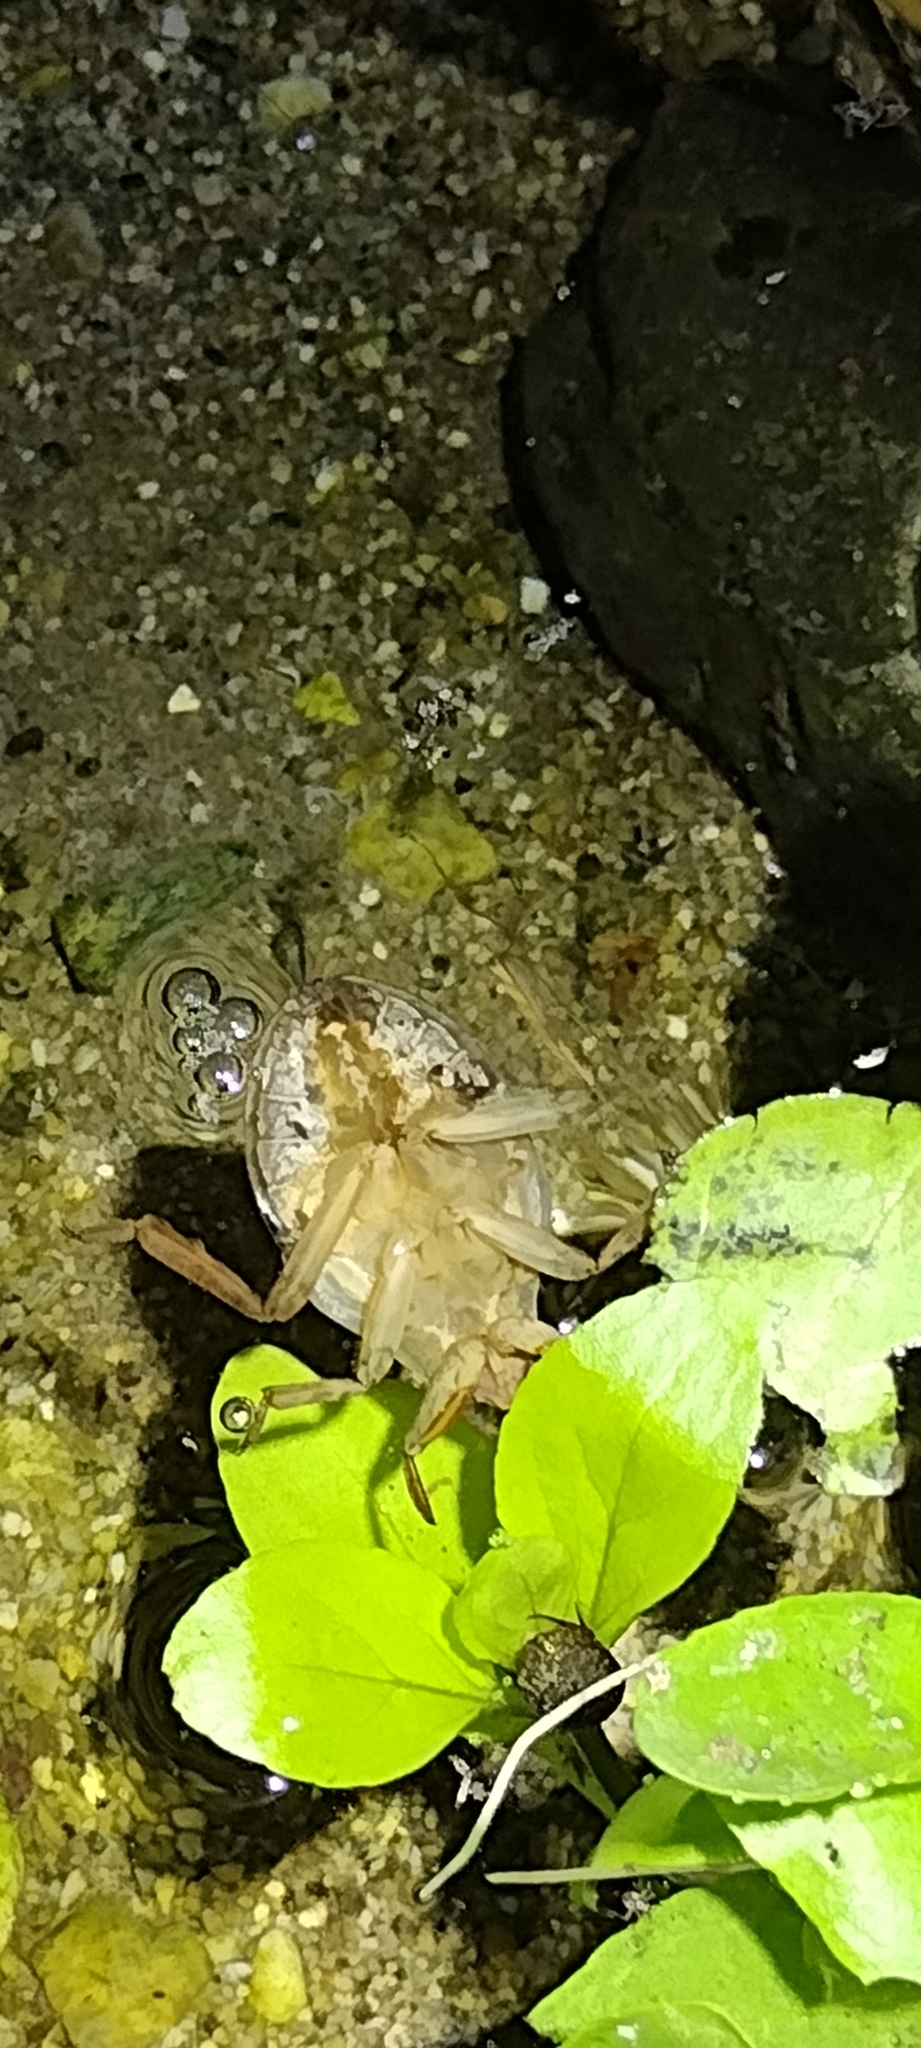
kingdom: Animalia
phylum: Arthropoda
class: Insecta
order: Hemiptera
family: Belostomatidae
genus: Abedus
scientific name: Abedus indentatus
